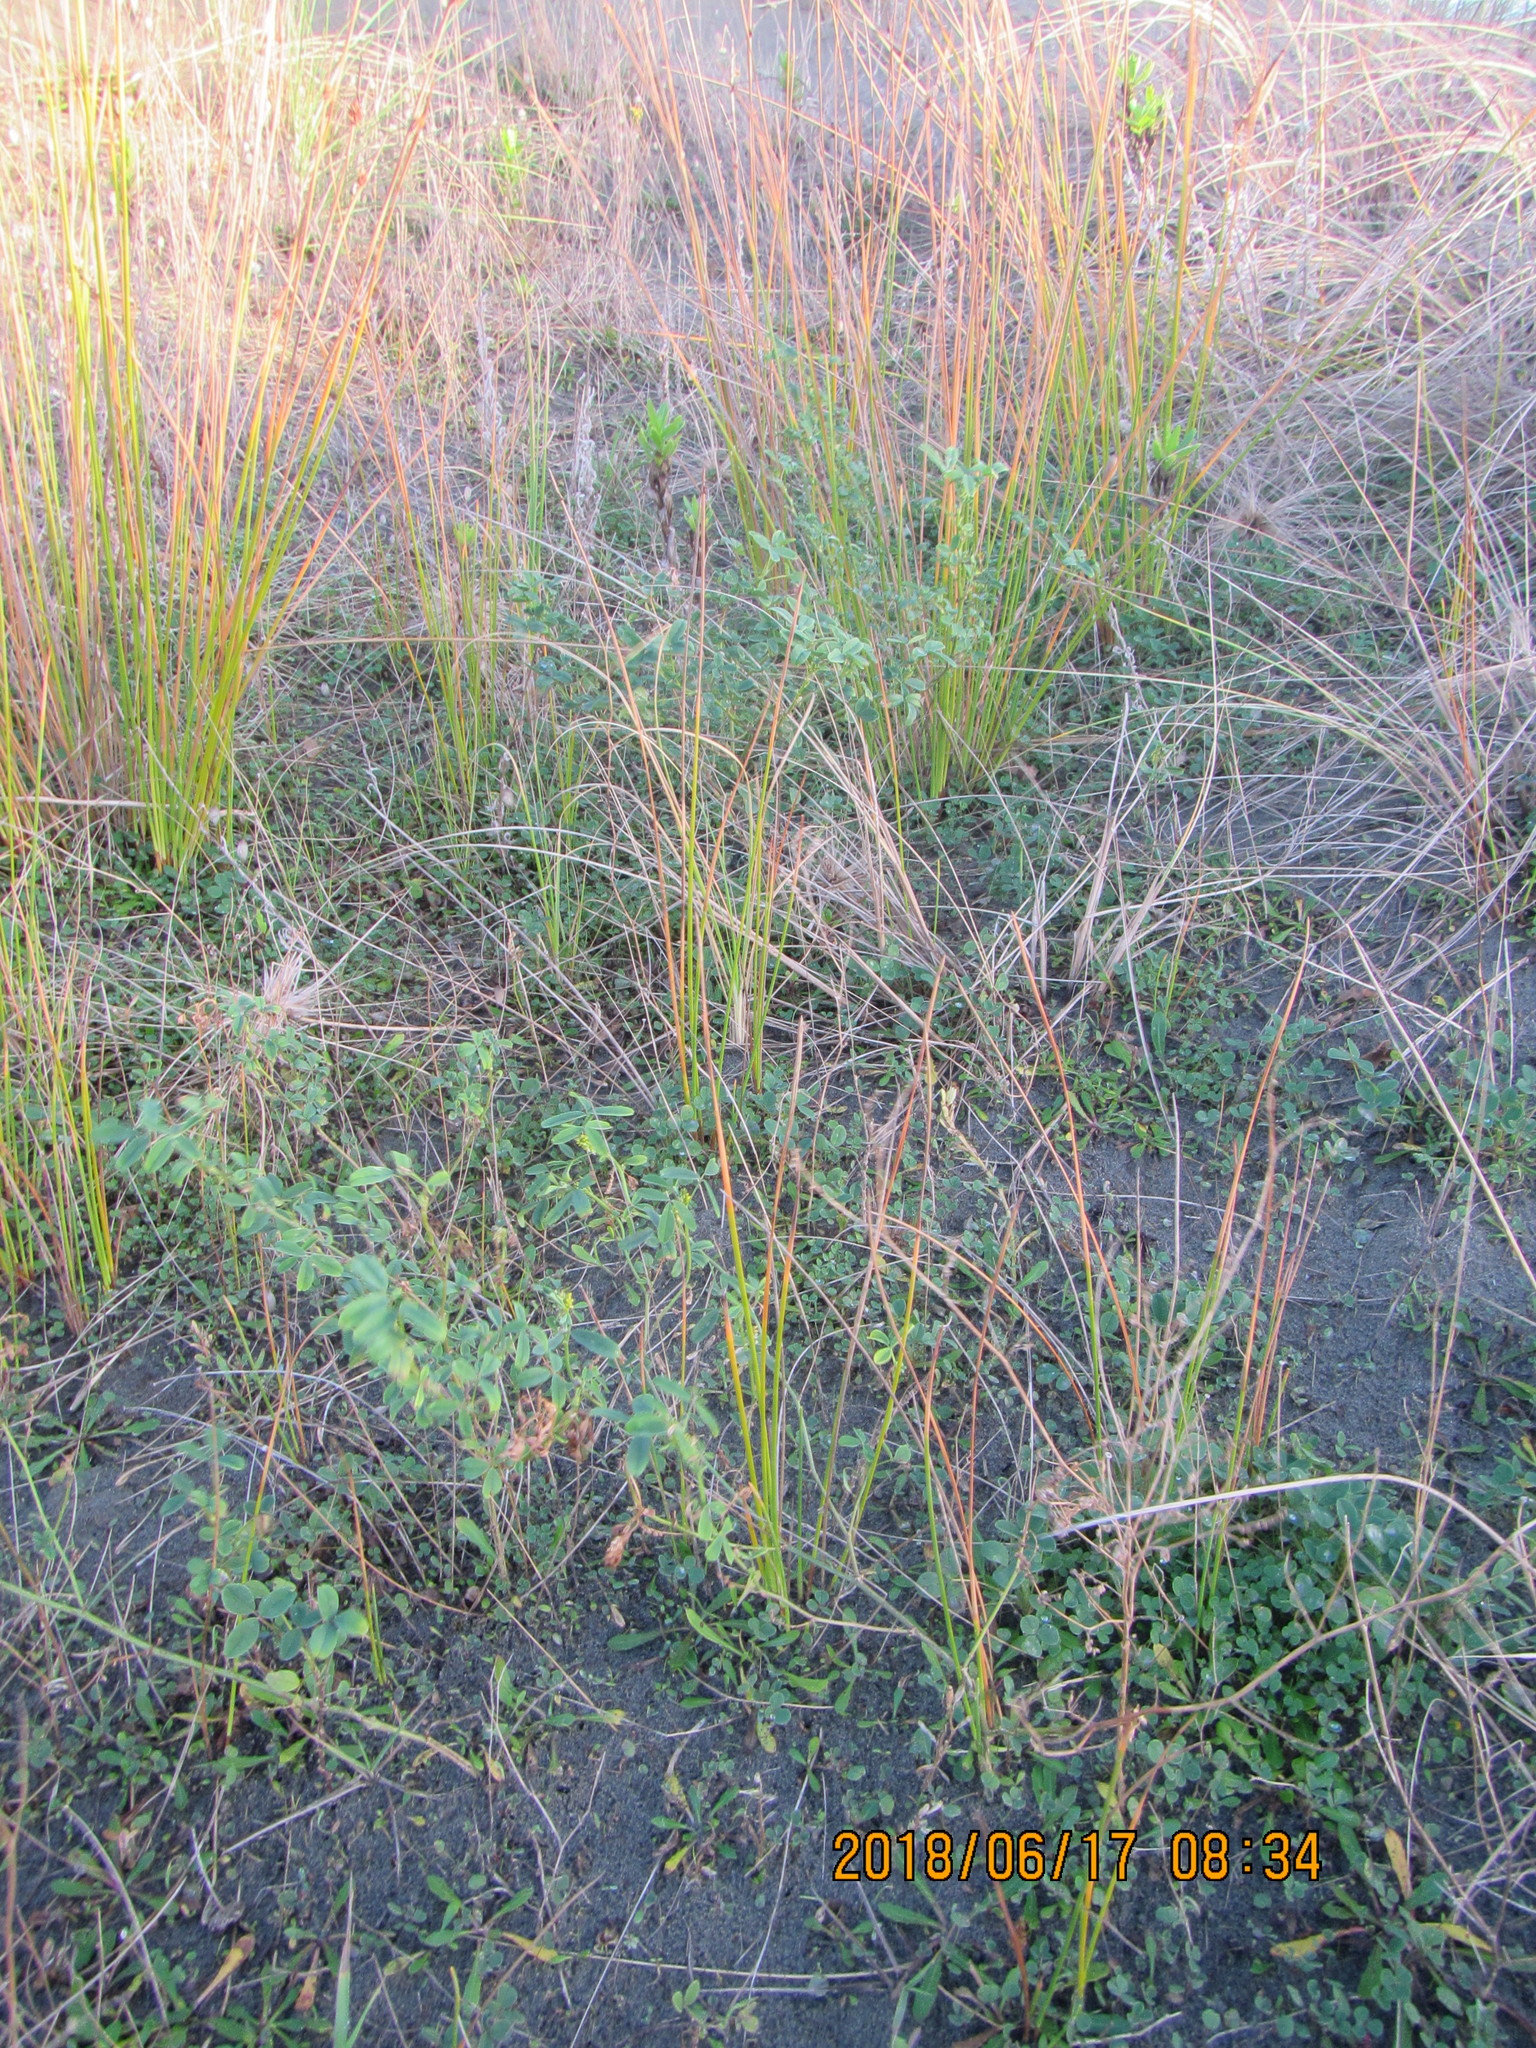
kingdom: Plantae
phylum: Tracheophyta
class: Magnoliopsida
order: Fabales
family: Fabaceae
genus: Melilotus
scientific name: Melilotus indicus
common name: Small melilot
